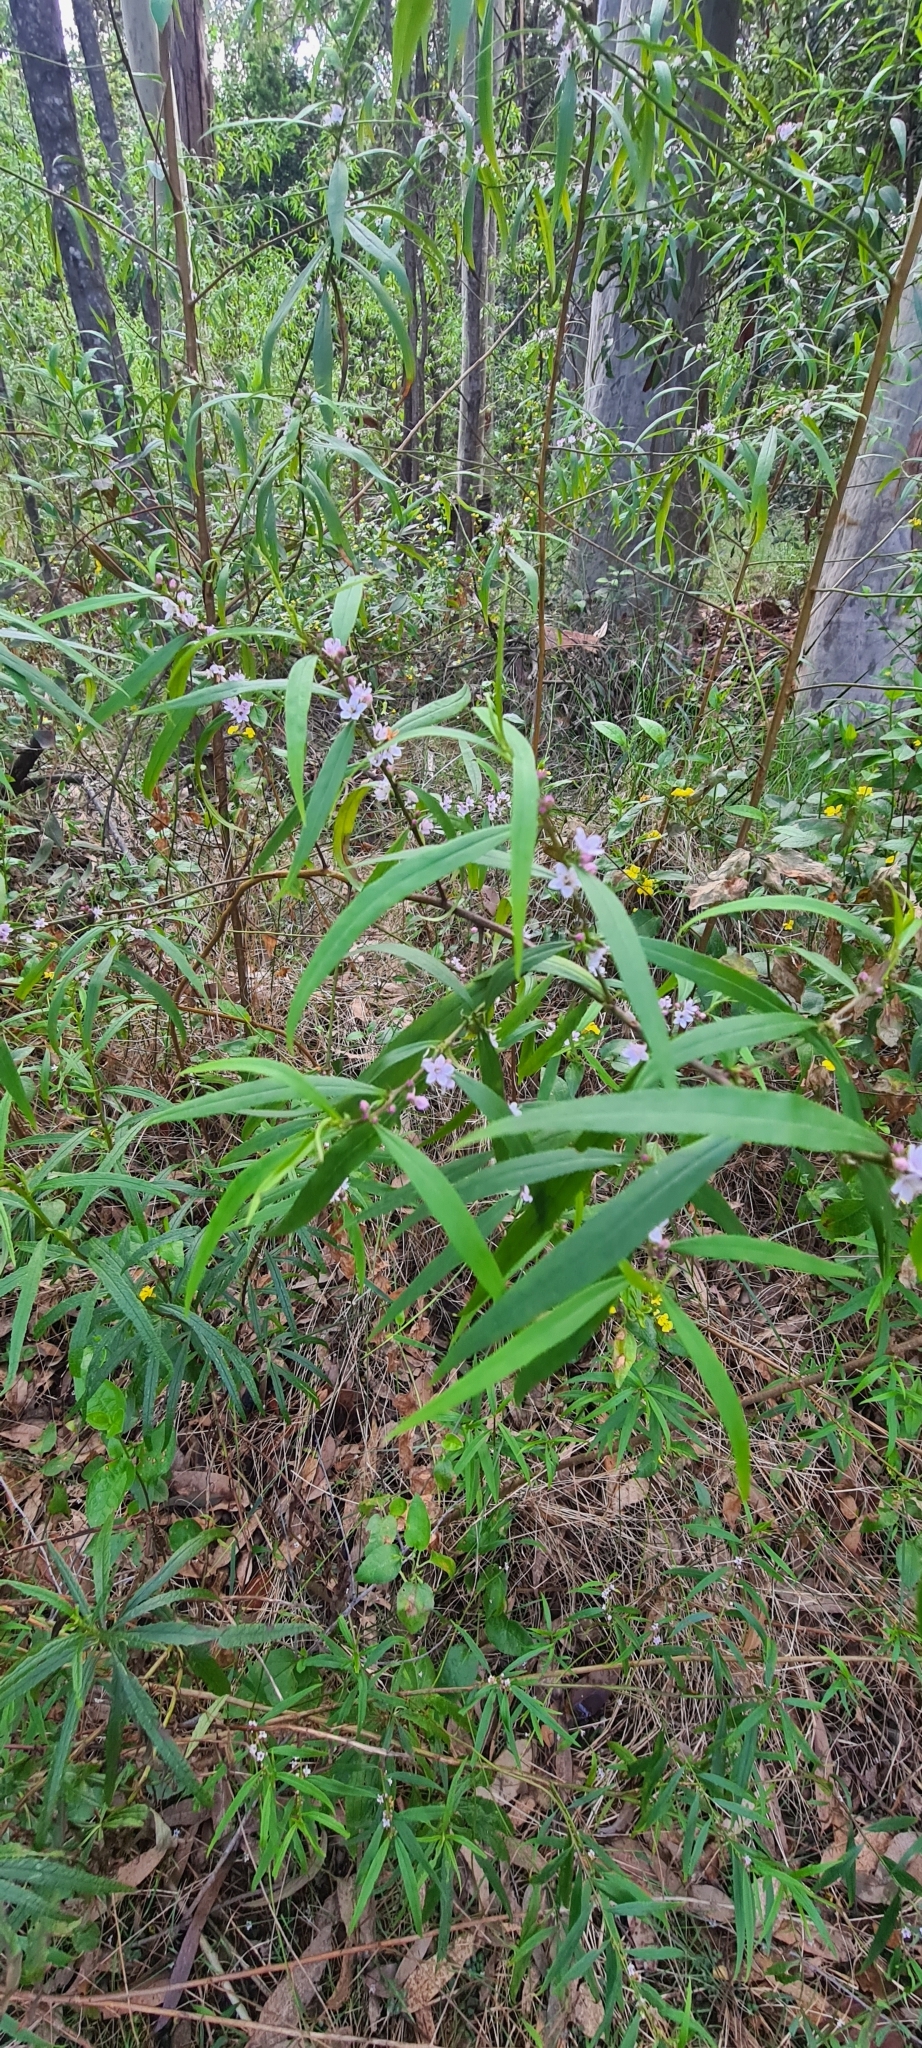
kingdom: Plantae
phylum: Tracheophyta
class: Magnoliopsida
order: Lamiales
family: Scrophulariaceae
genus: Myoporum
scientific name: Myoporum bateae
